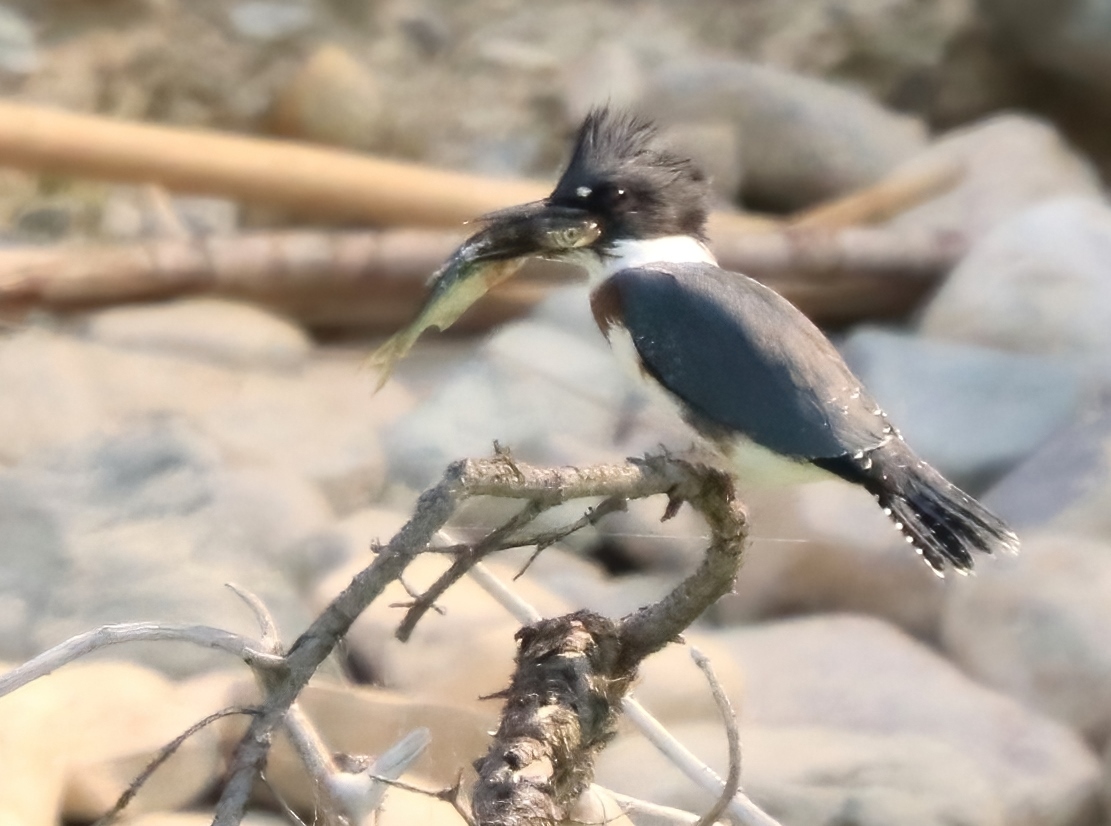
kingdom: Animalia
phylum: Chordata
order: Cypriniformes
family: Cyprinidae
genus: Richardsonius
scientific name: Richardsonius balteatus
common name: Redside shiner
